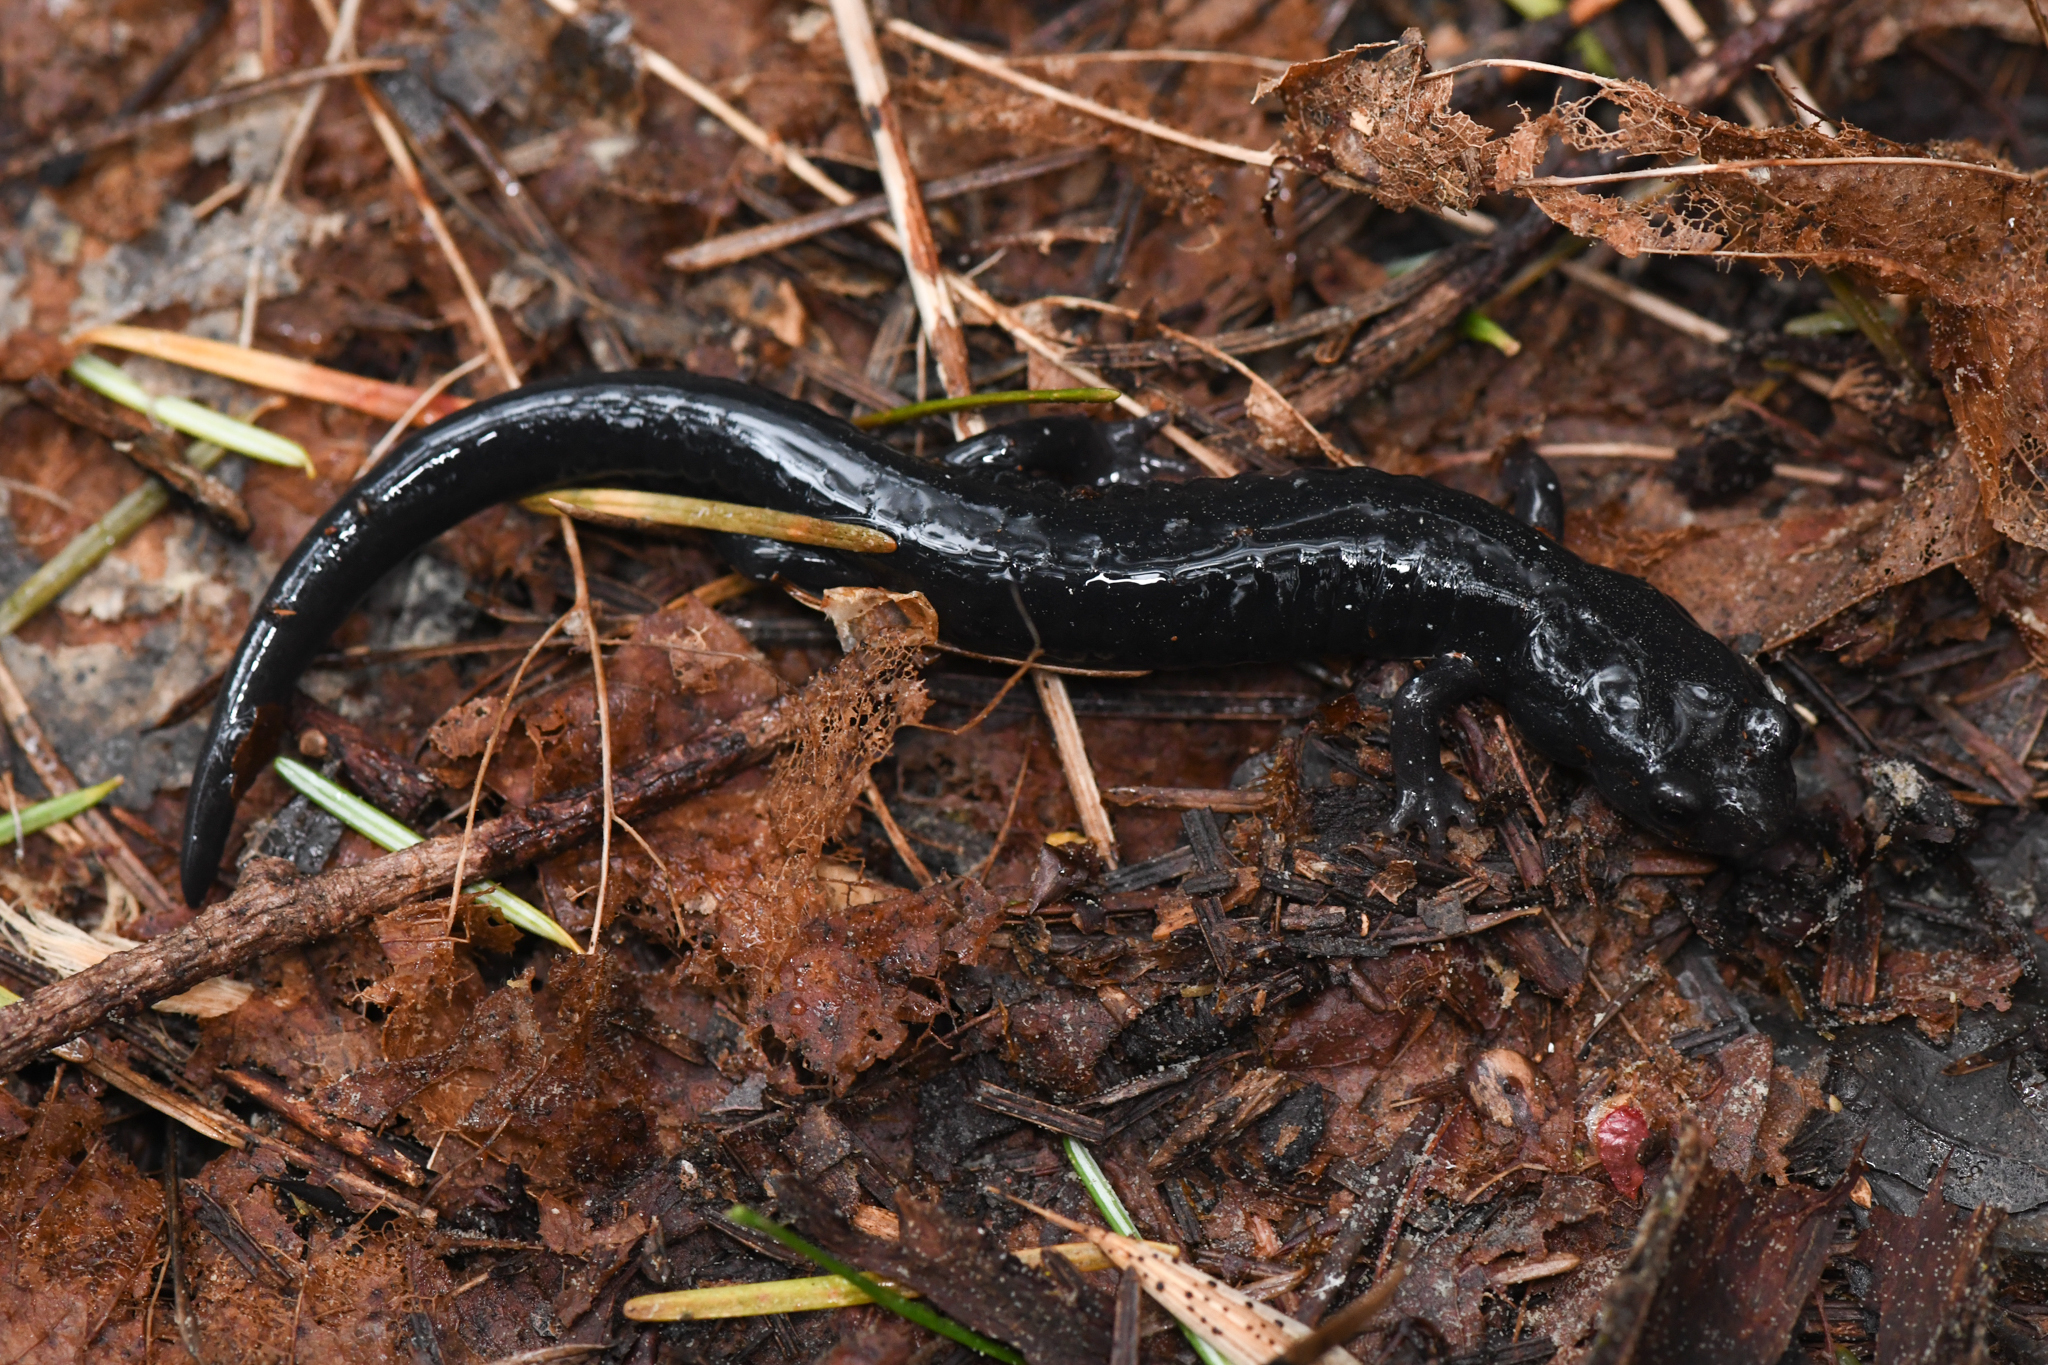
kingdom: Animalia
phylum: Chordata
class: Amphibia
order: Caudata
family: Plethodontidae
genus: Aneides
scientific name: Aneides iecanus
